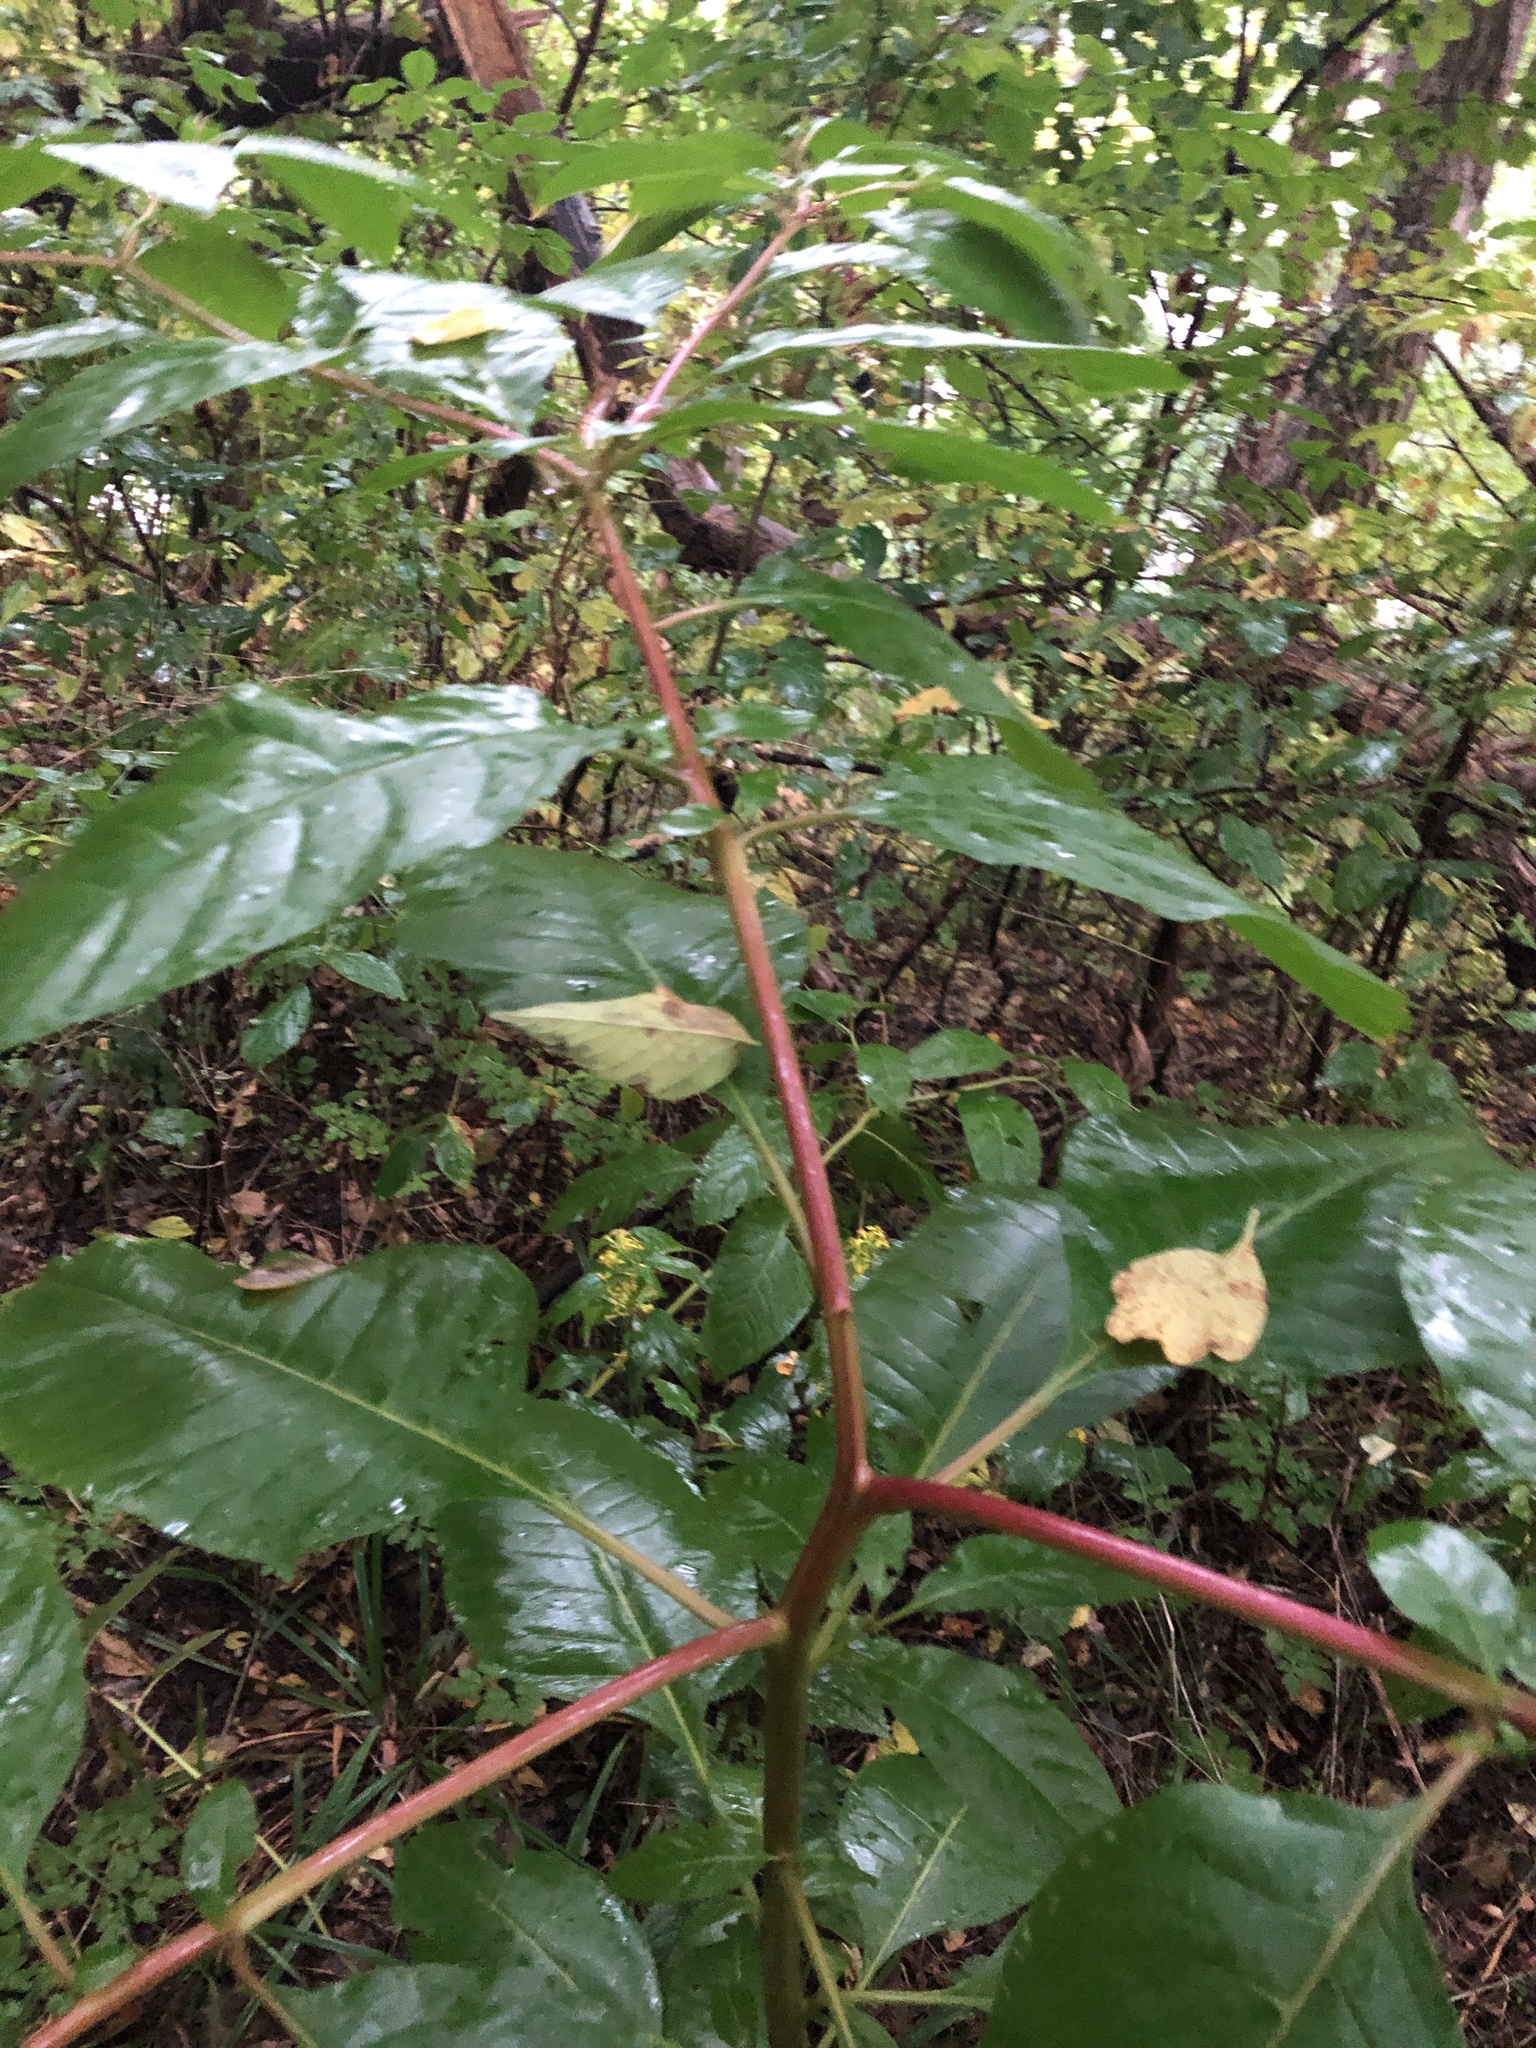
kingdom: Plantae
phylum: Tracheophyta
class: Magnoliopsida
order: Caryophyllales
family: Phytolaccaceae
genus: Phytolacca
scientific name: Phytolacca americana
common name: American pokeweed
